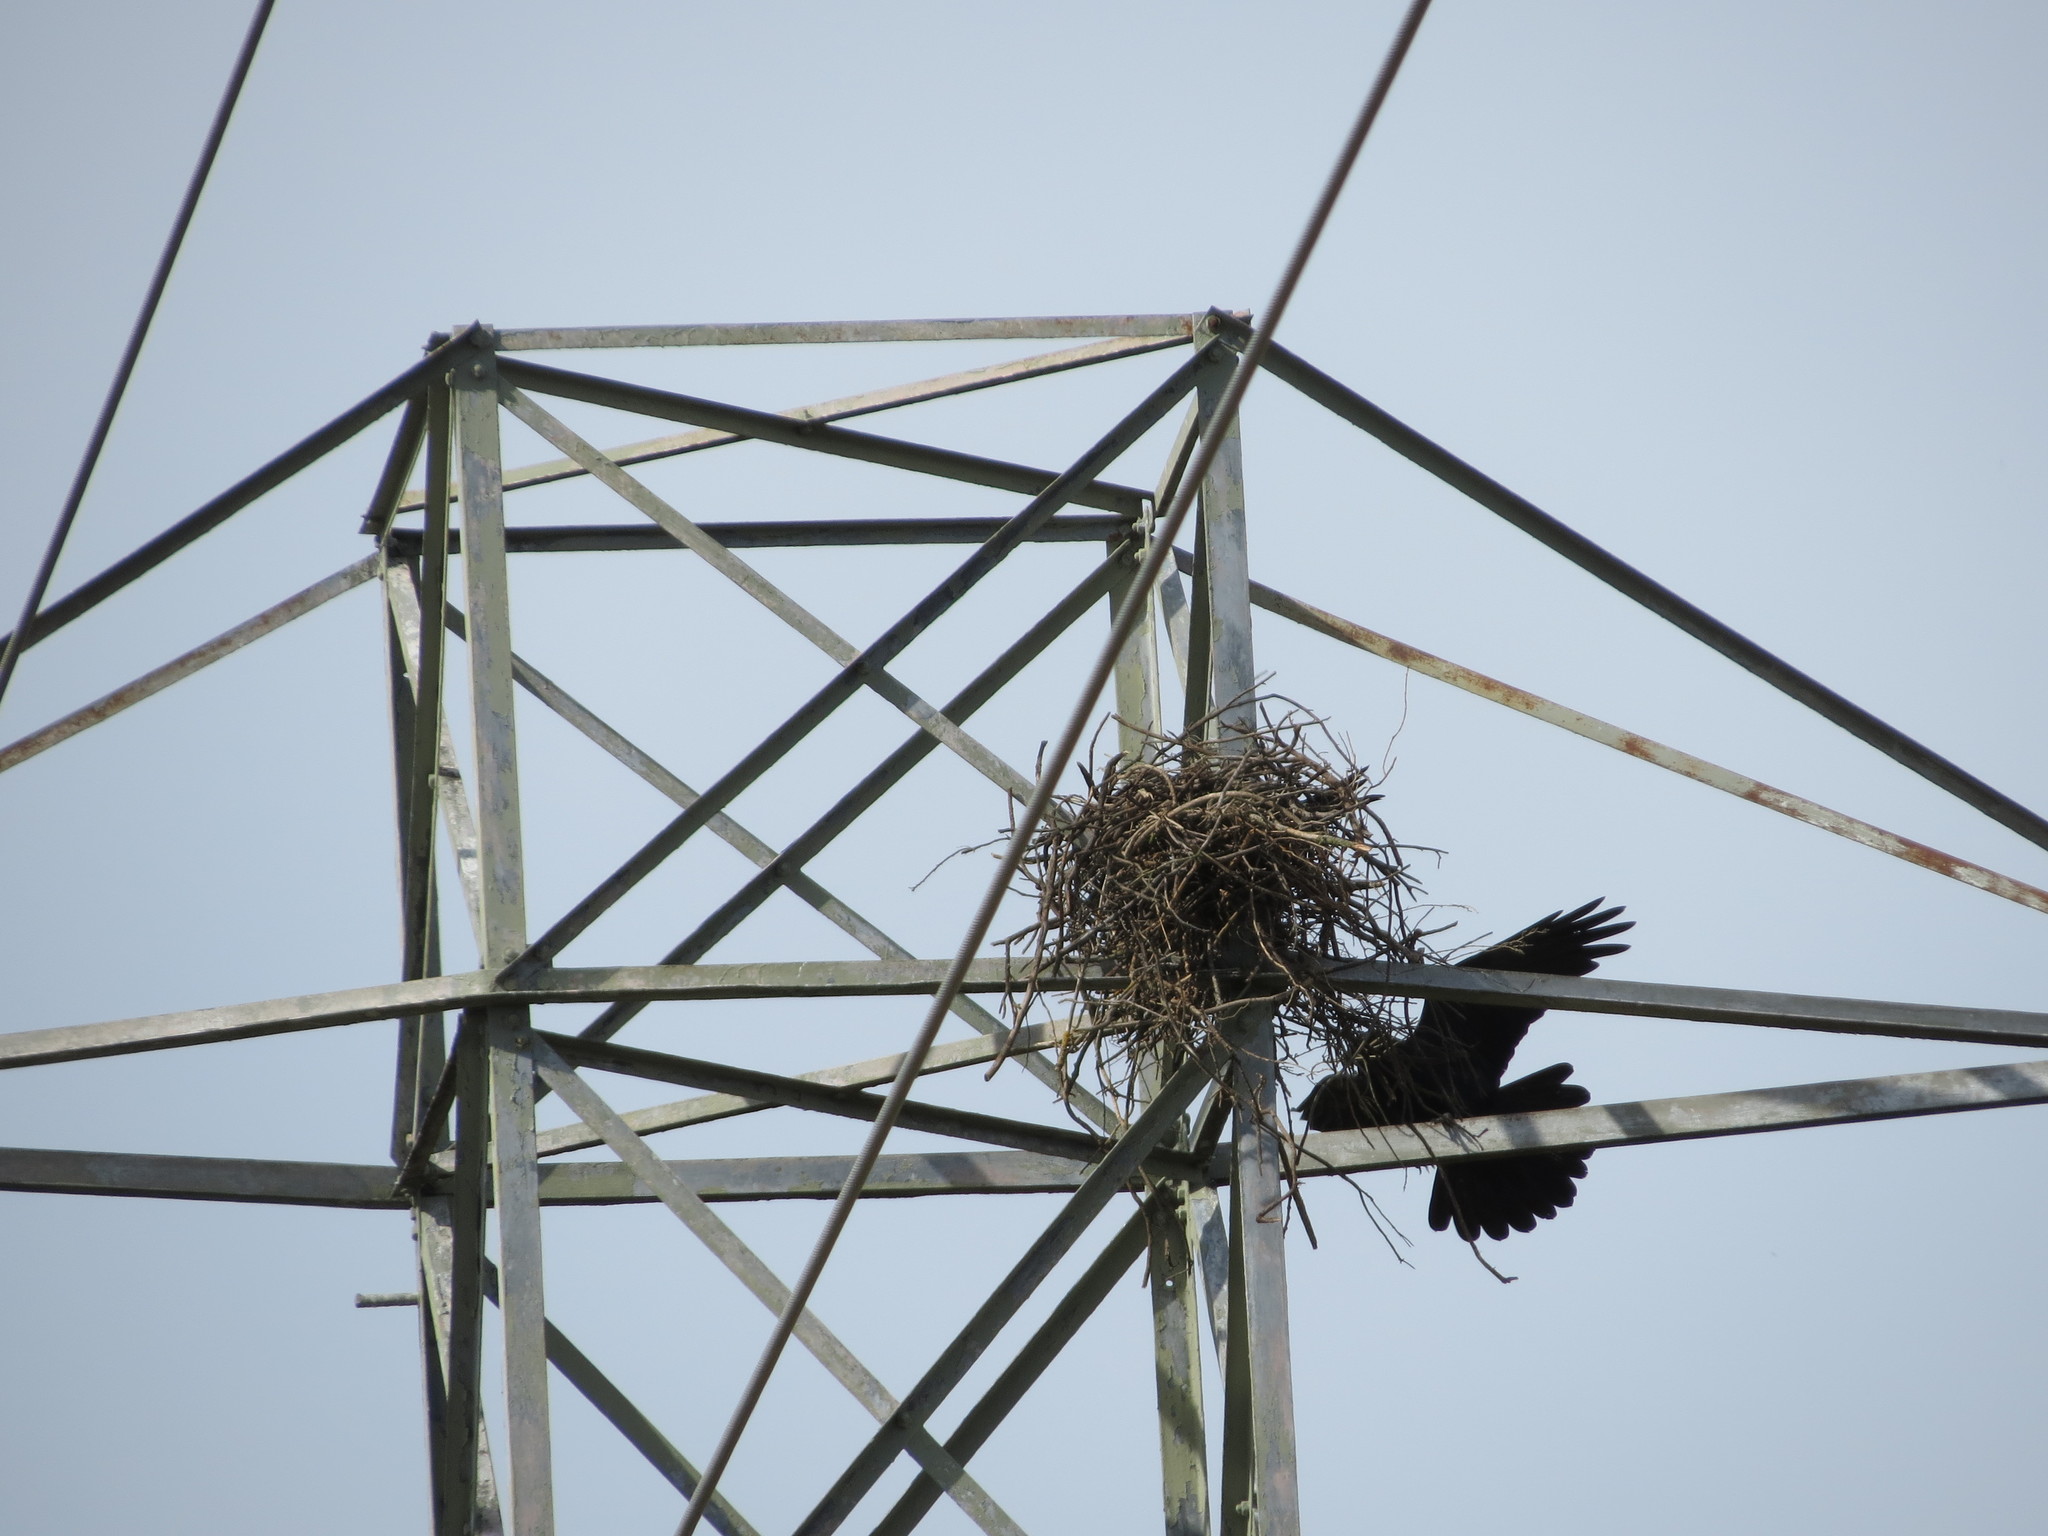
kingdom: Animalia
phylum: Chordata
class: Aves
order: Passeriformes
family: Corvidae
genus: Corvus
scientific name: Corvus corax
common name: Common raven
